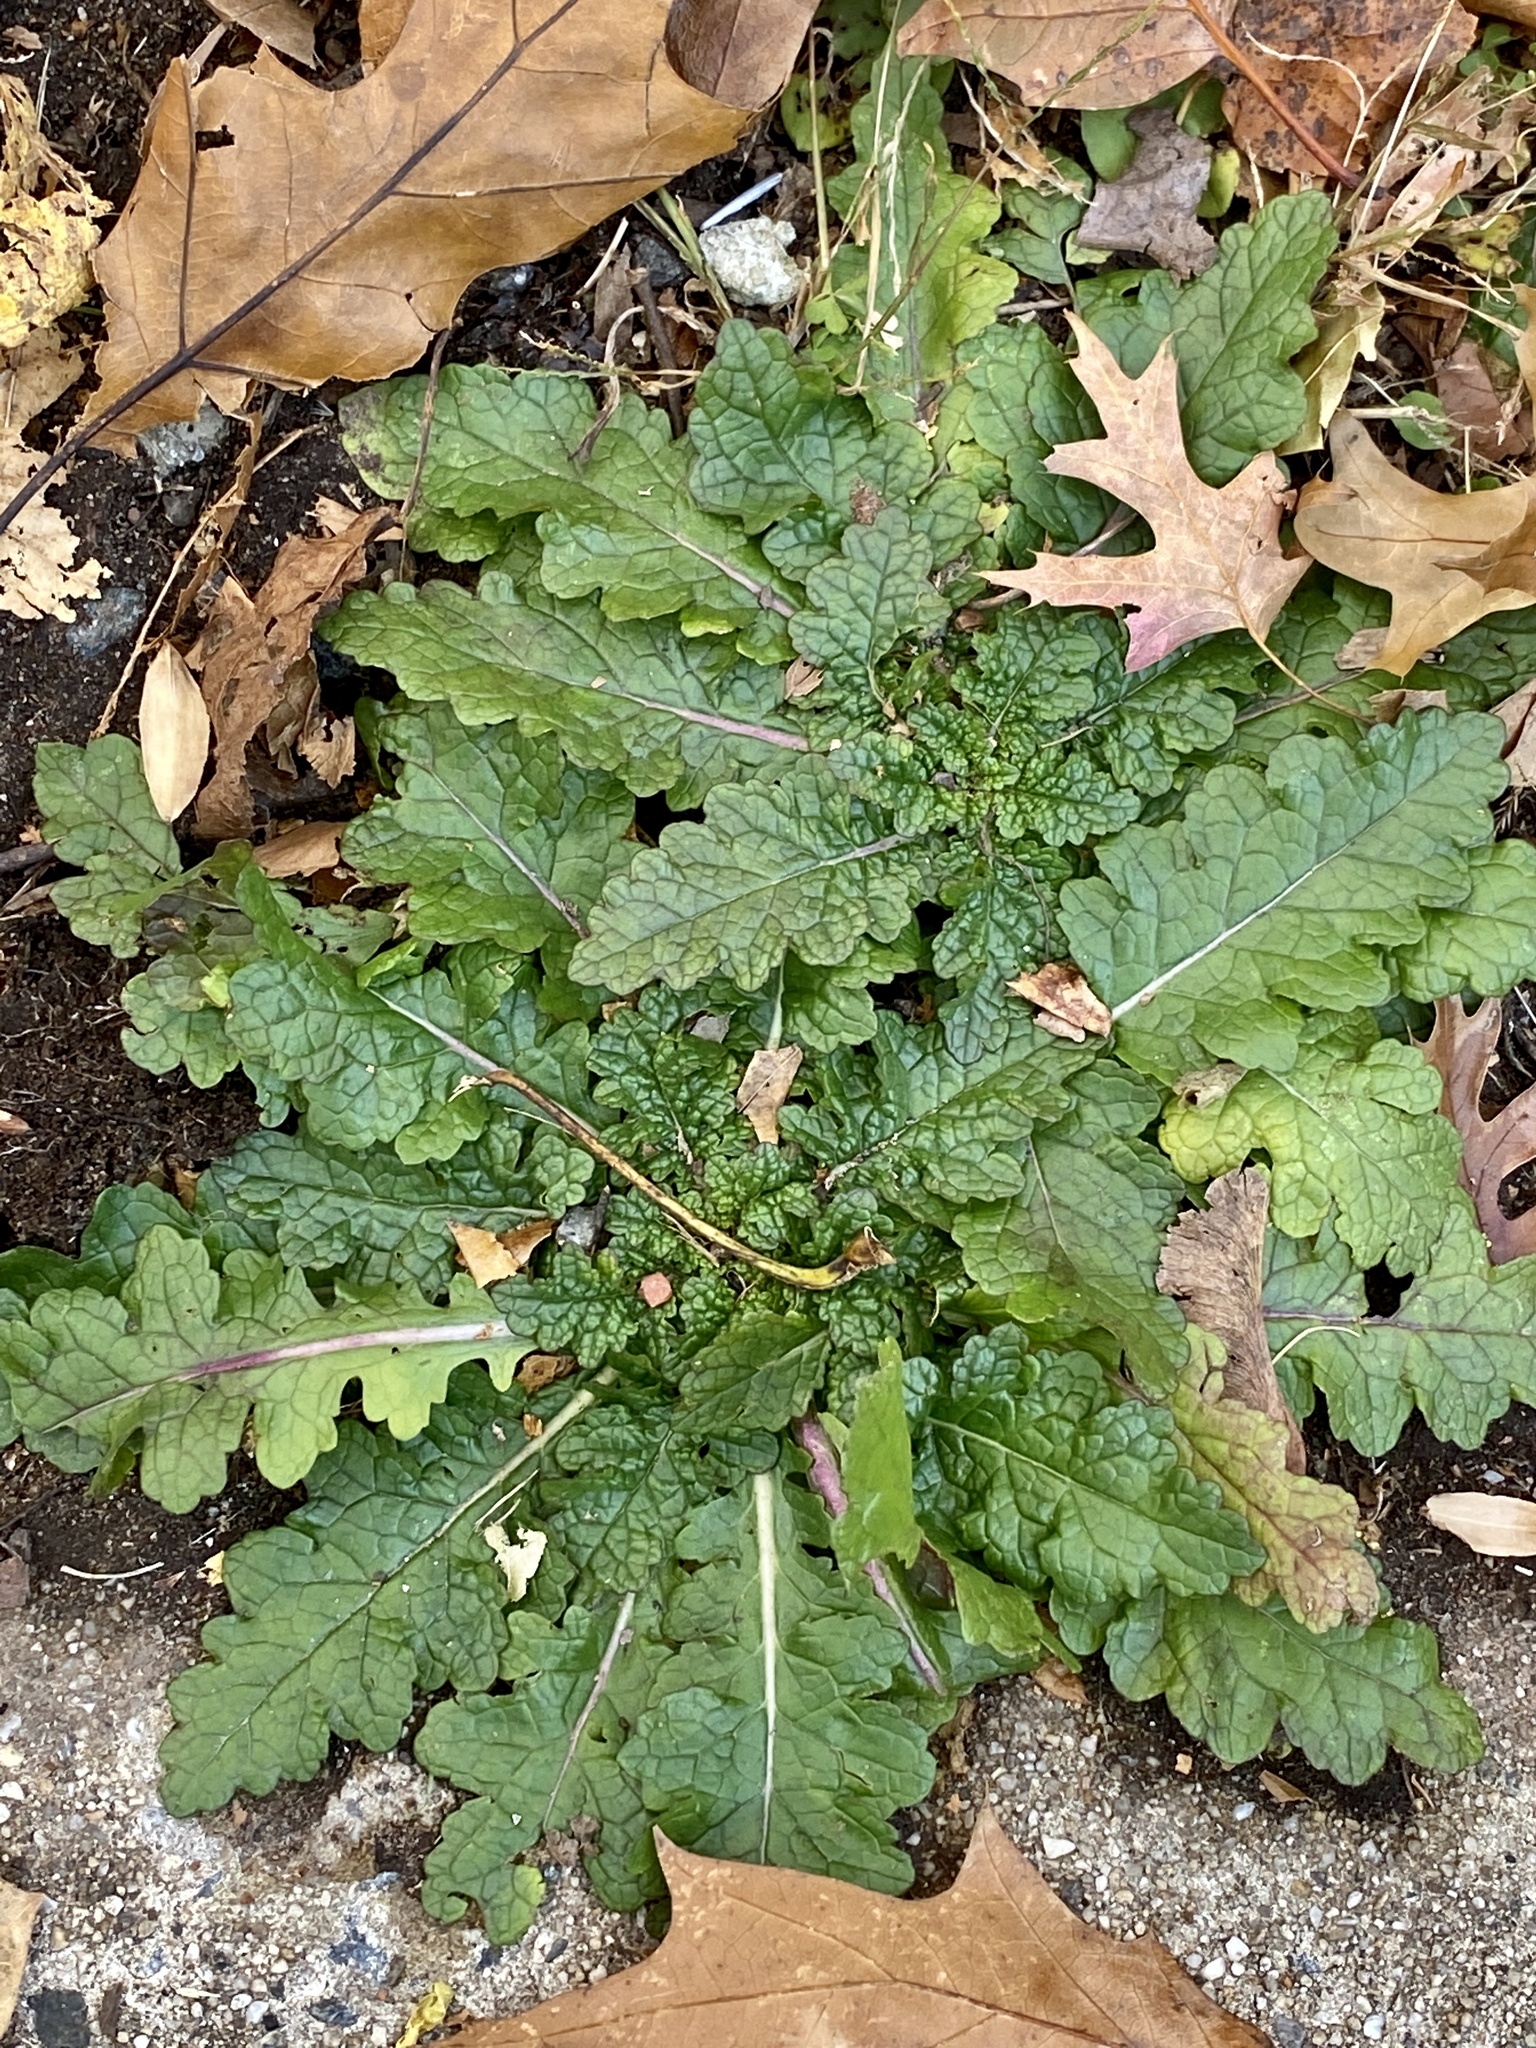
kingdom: Plantae
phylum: Tracheophyta
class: Magnoliopsida
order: Lamiales
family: Scrophulariaceae
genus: Verbascum
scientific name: Verbascum blattaria
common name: Moth mullein
